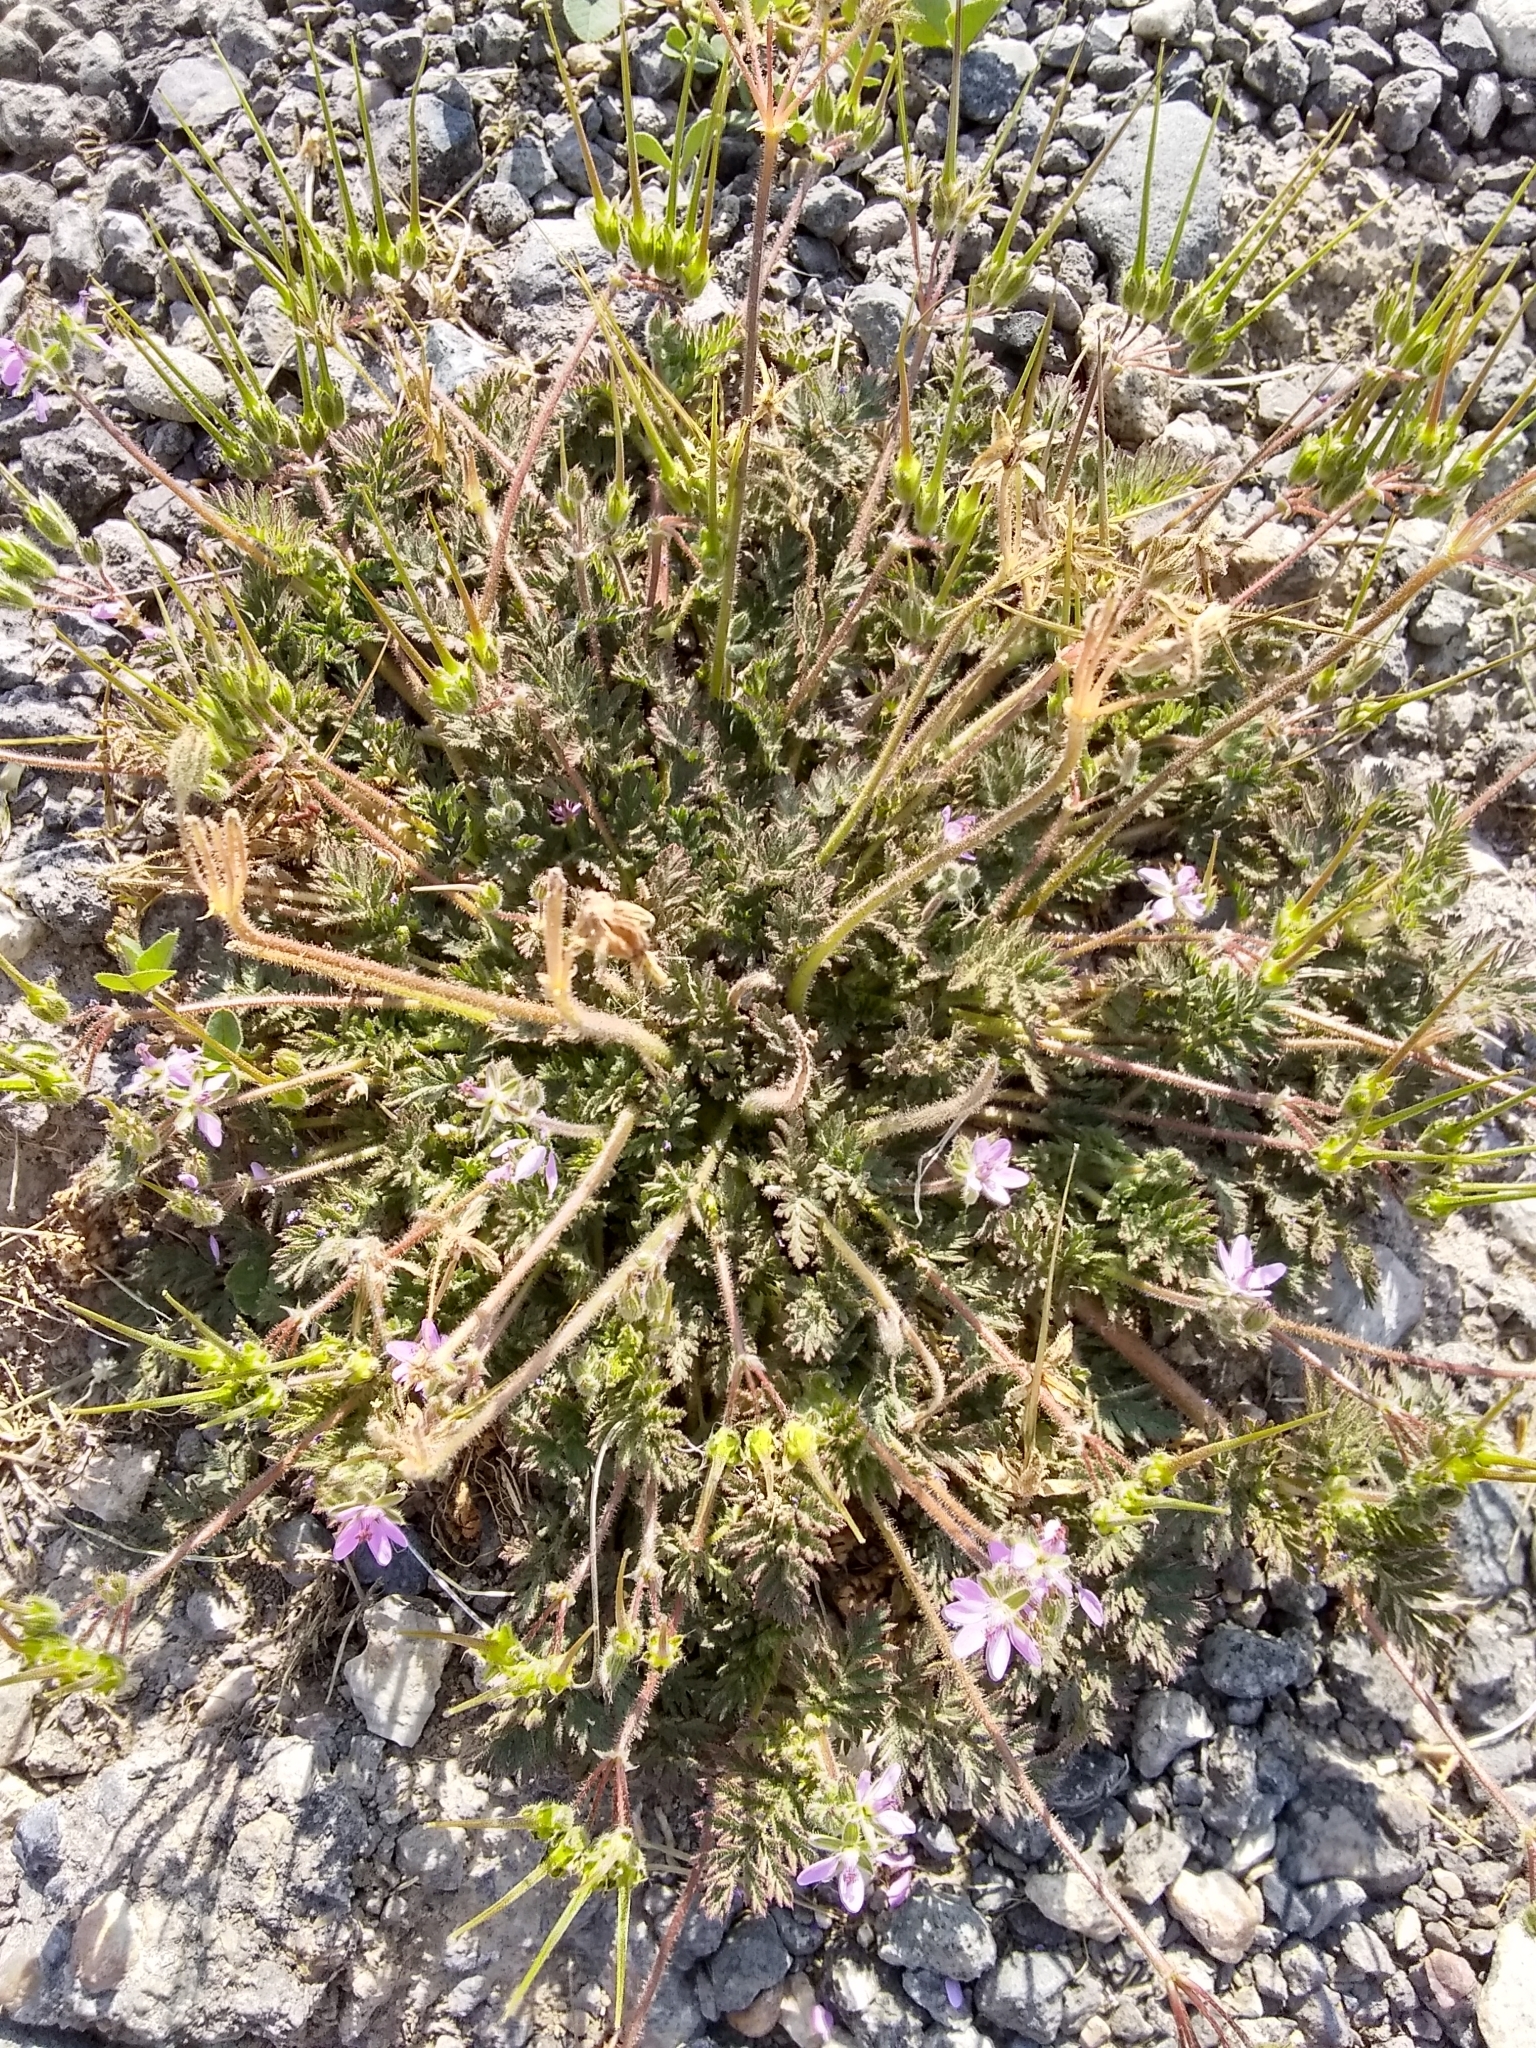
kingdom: Plantae
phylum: Tracheophyta
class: Magnoliopsida
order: Geraniales
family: Geraniaceae
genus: Erodium
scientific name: Erodium cicutarium
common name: Common stork's-bill
